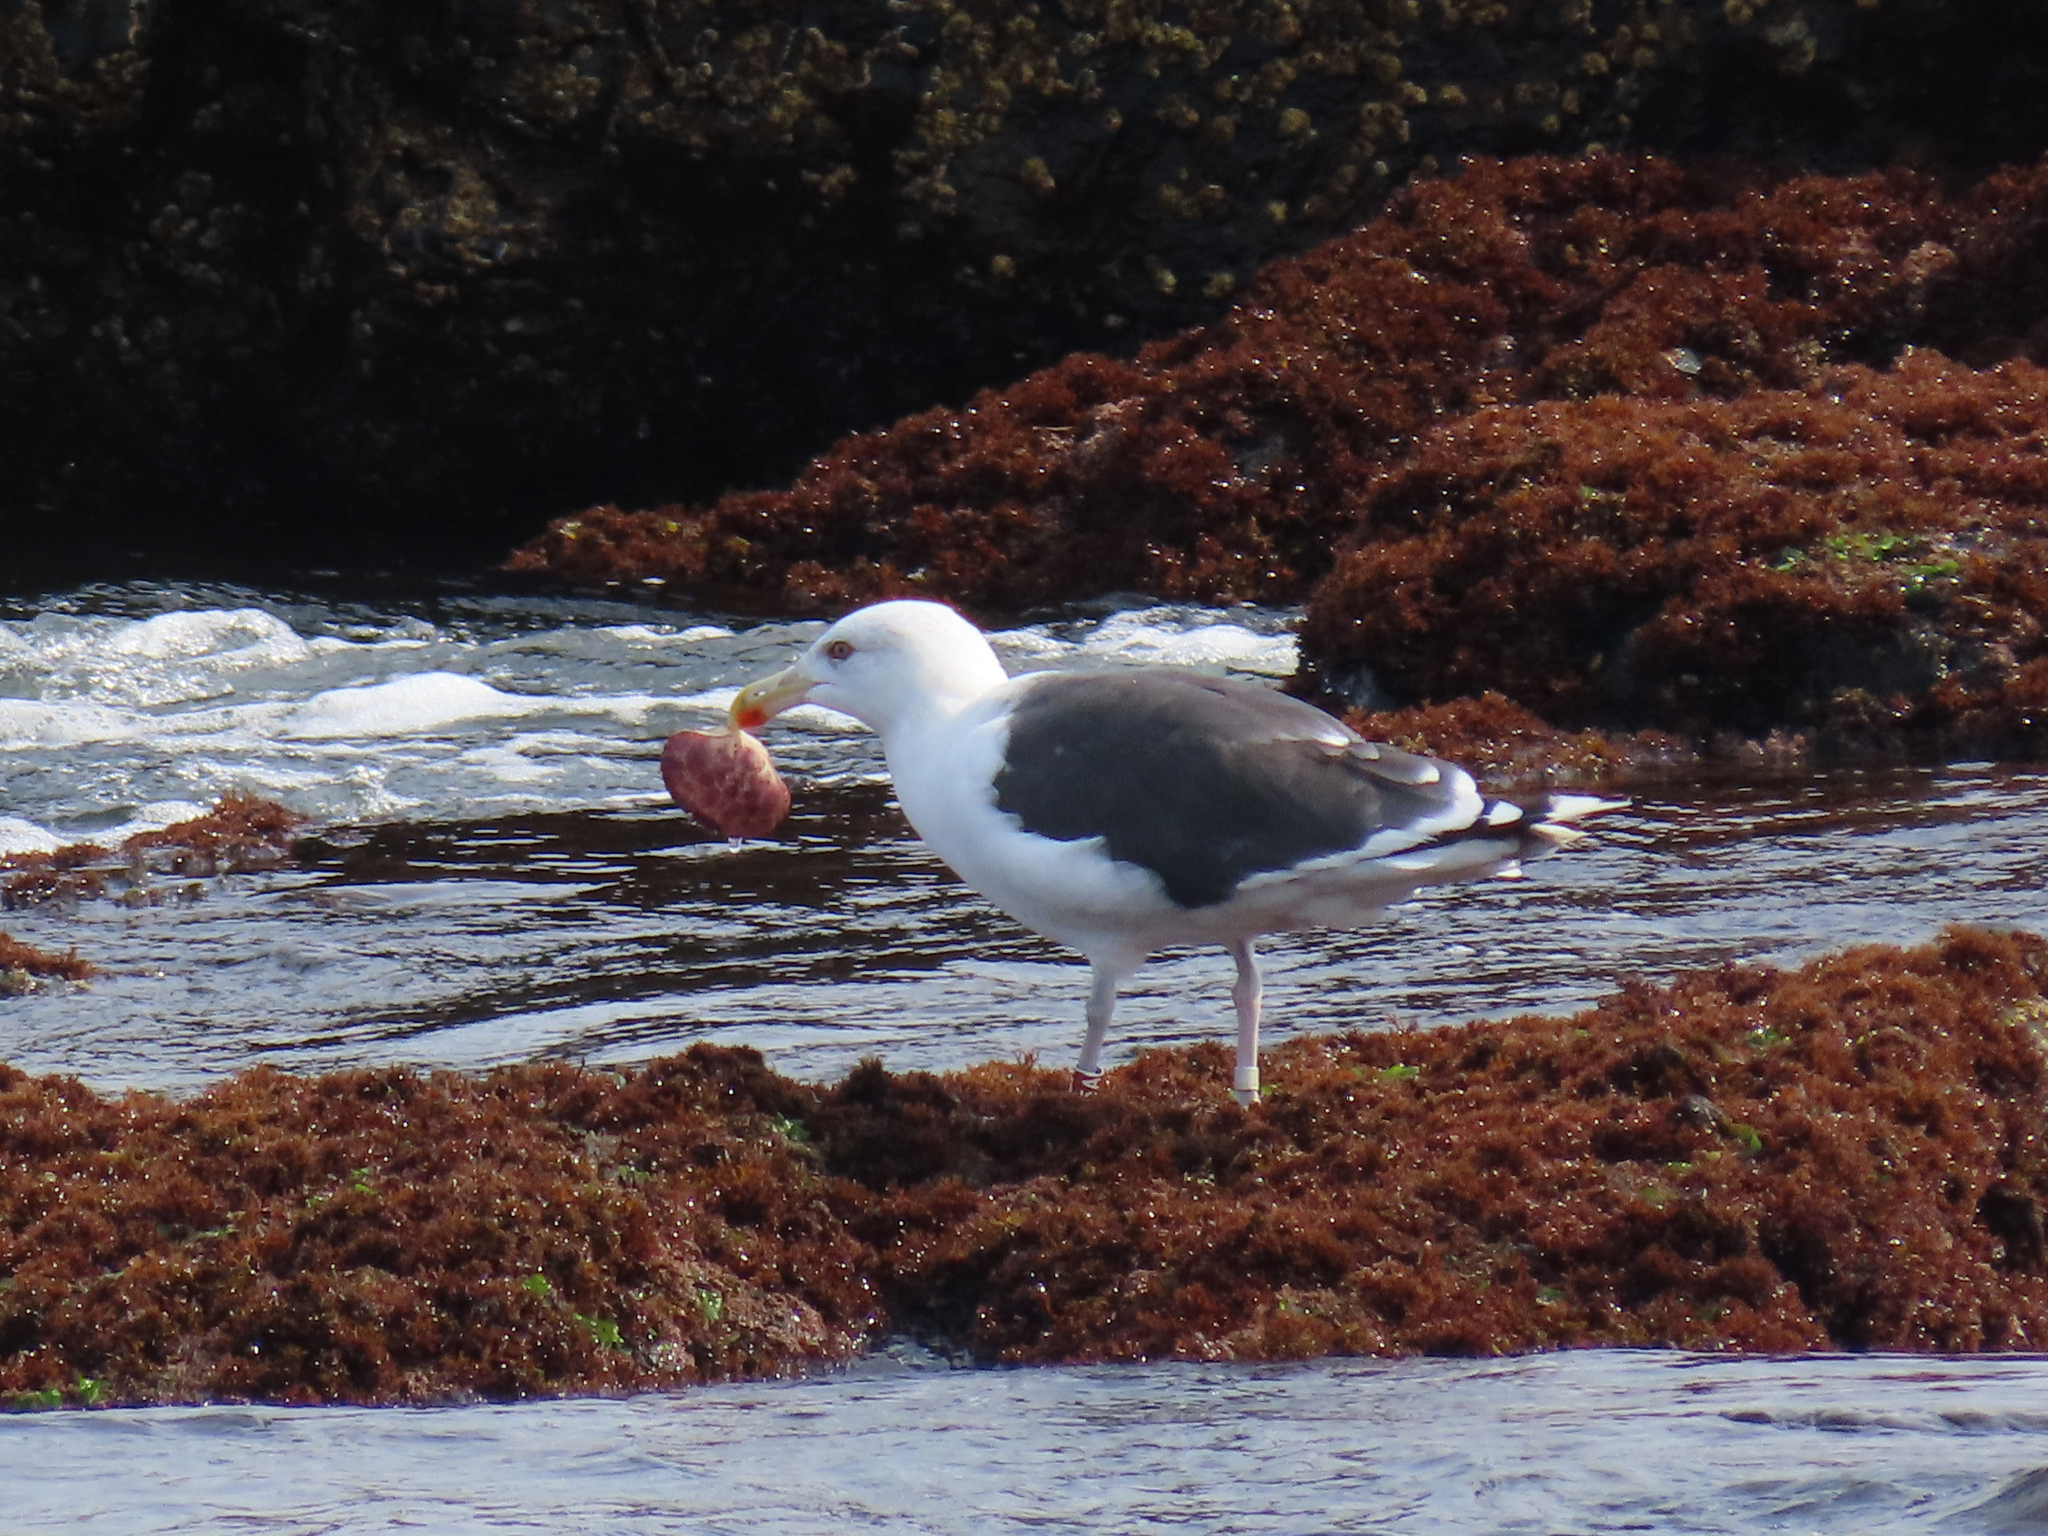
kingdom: Animalia
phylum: Chordata
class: Aves
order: Charadriiformes
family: Laridae
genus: Larus
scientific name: Larus marinus
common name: Great black-backed gull
